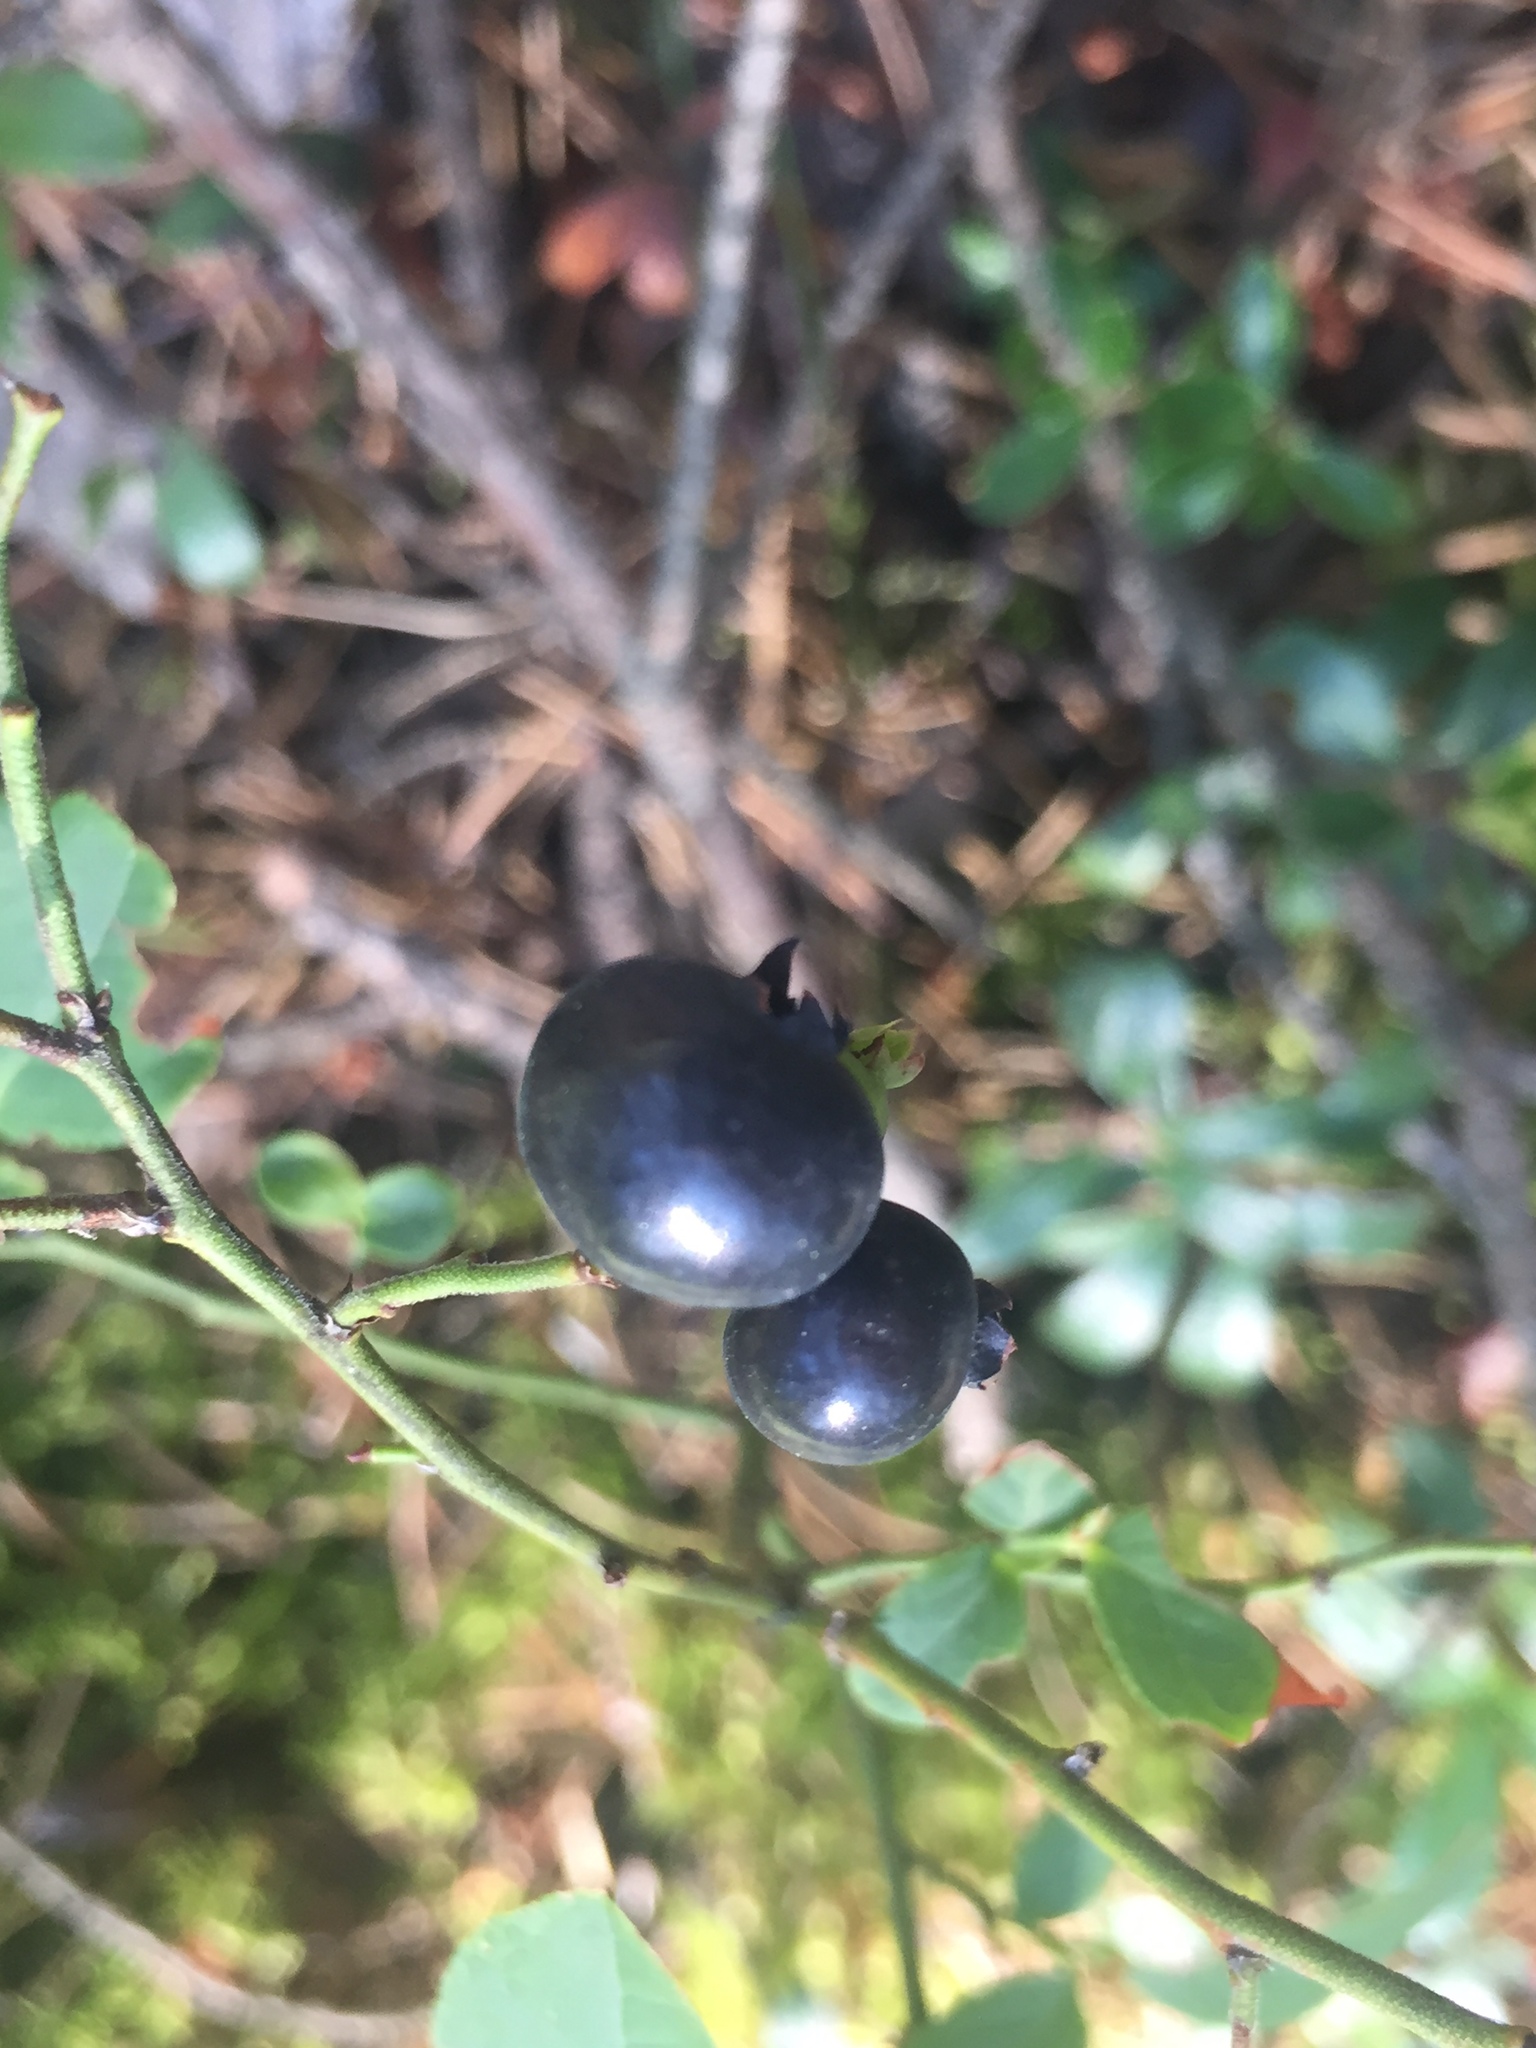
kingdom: Plantae
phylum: Tracheophyta
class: Magnoliopsida
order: Ericales
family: Ericaceae
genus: Vaccinium
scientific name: Vaccinium angustifolium
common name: Early lowbush blueberry
